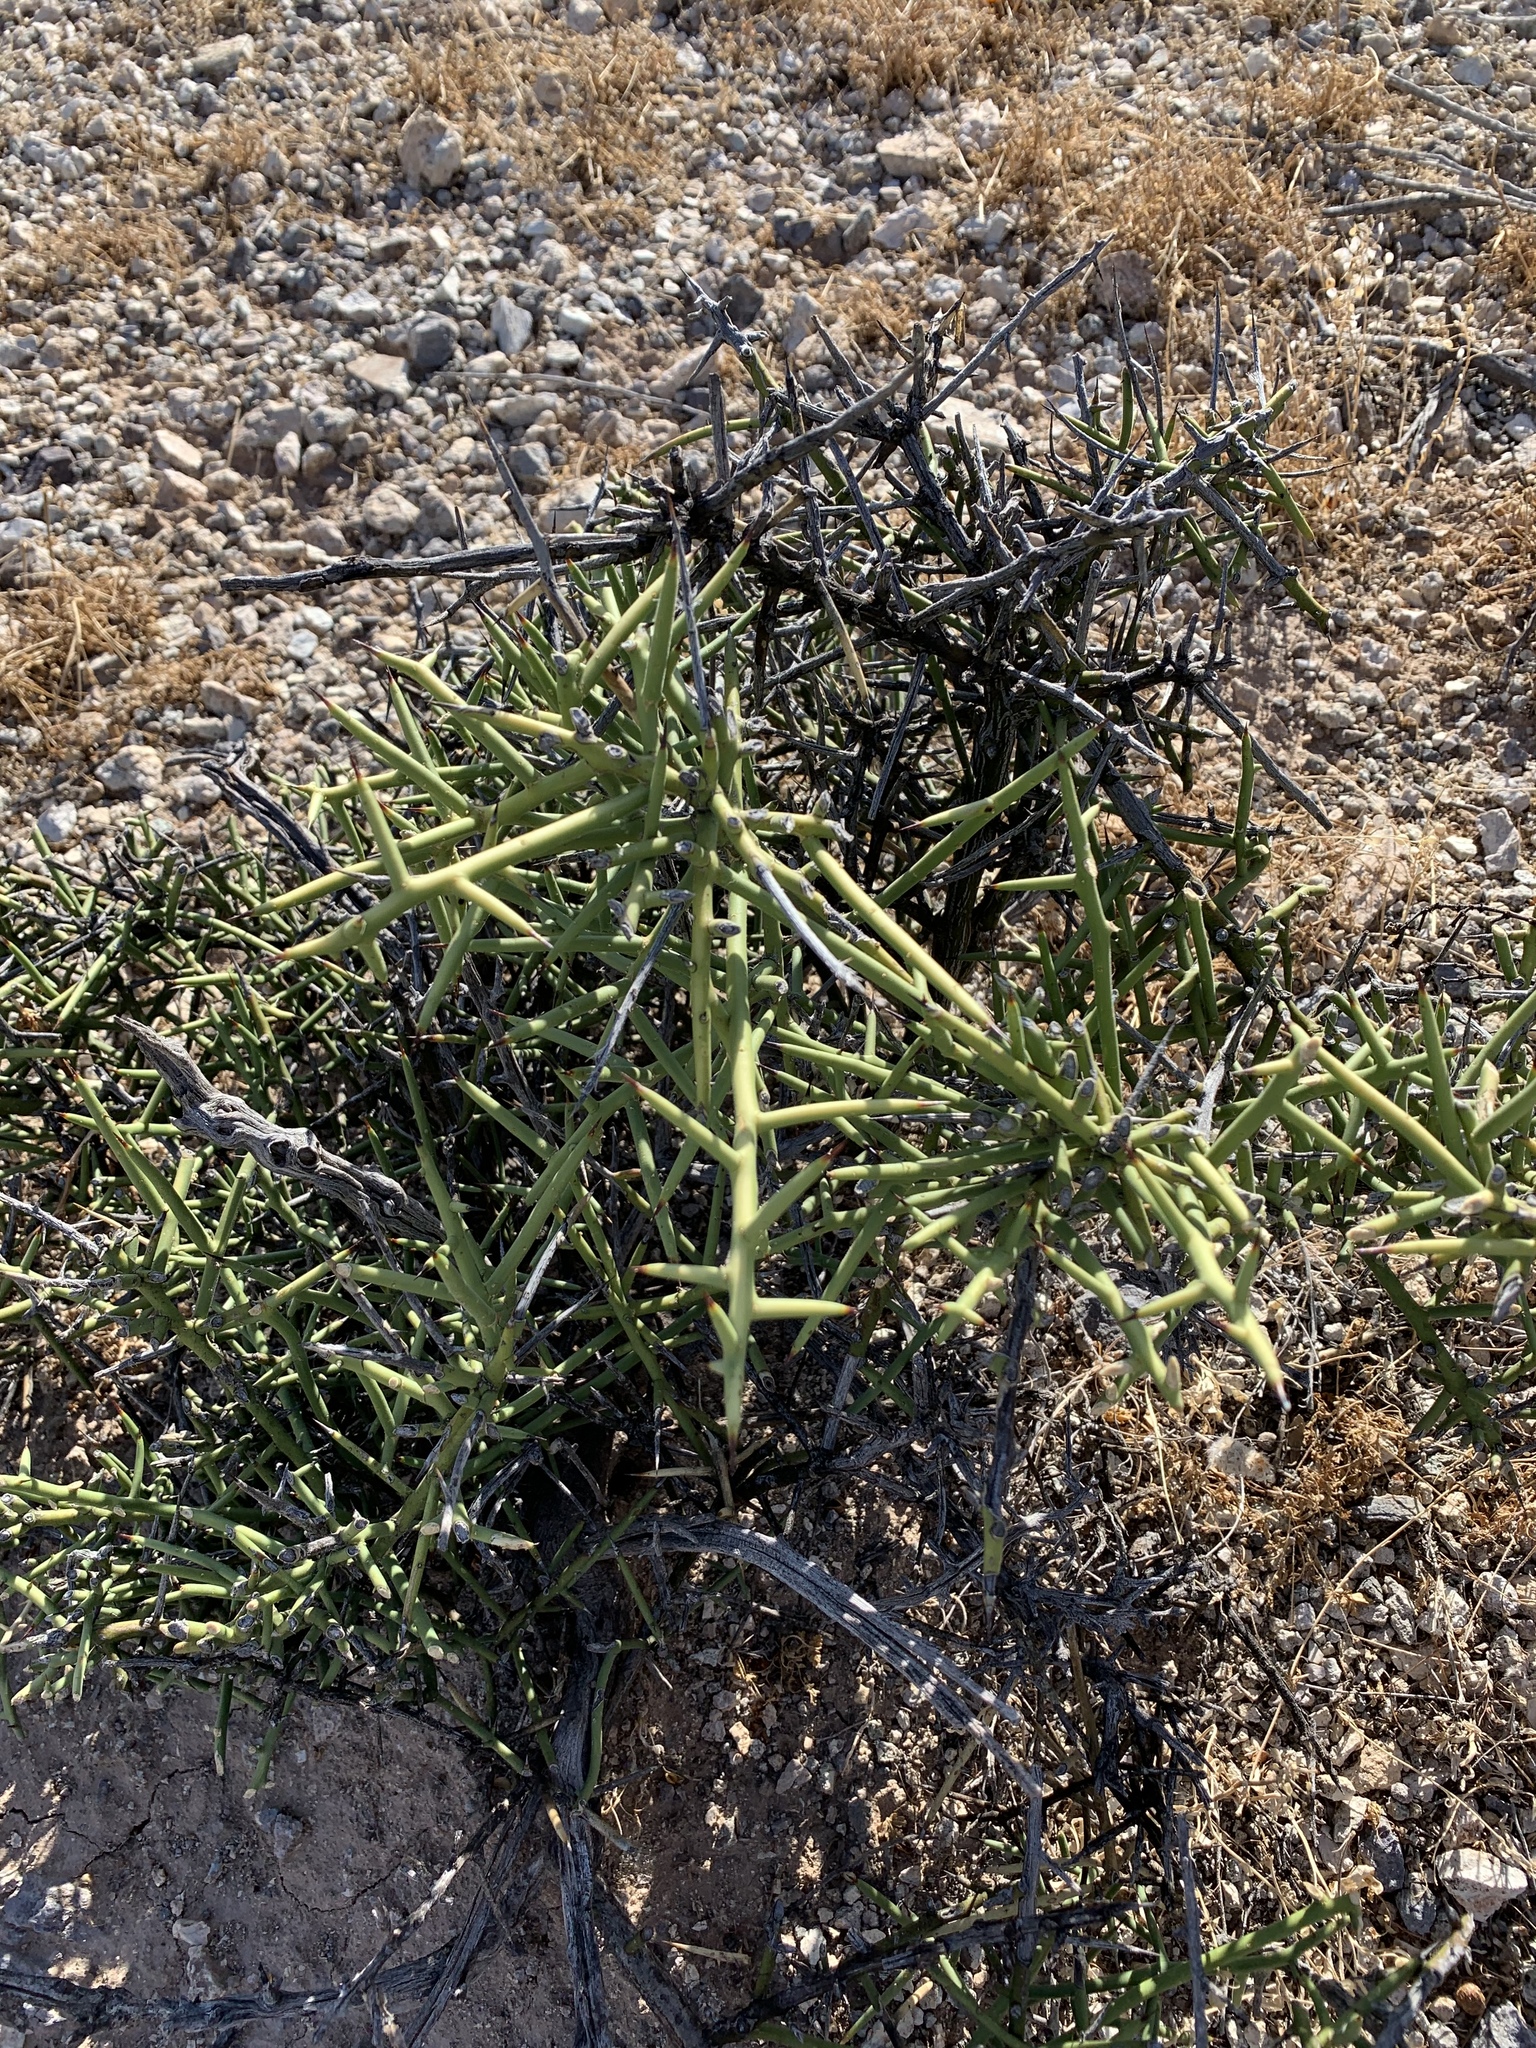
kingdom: Plantae
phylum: Tracheophyta
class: Magnoliopsida
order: Brassicales
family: Koeberliniaceae
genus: Koeberlinia
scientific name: Koeberlinia spinosa
